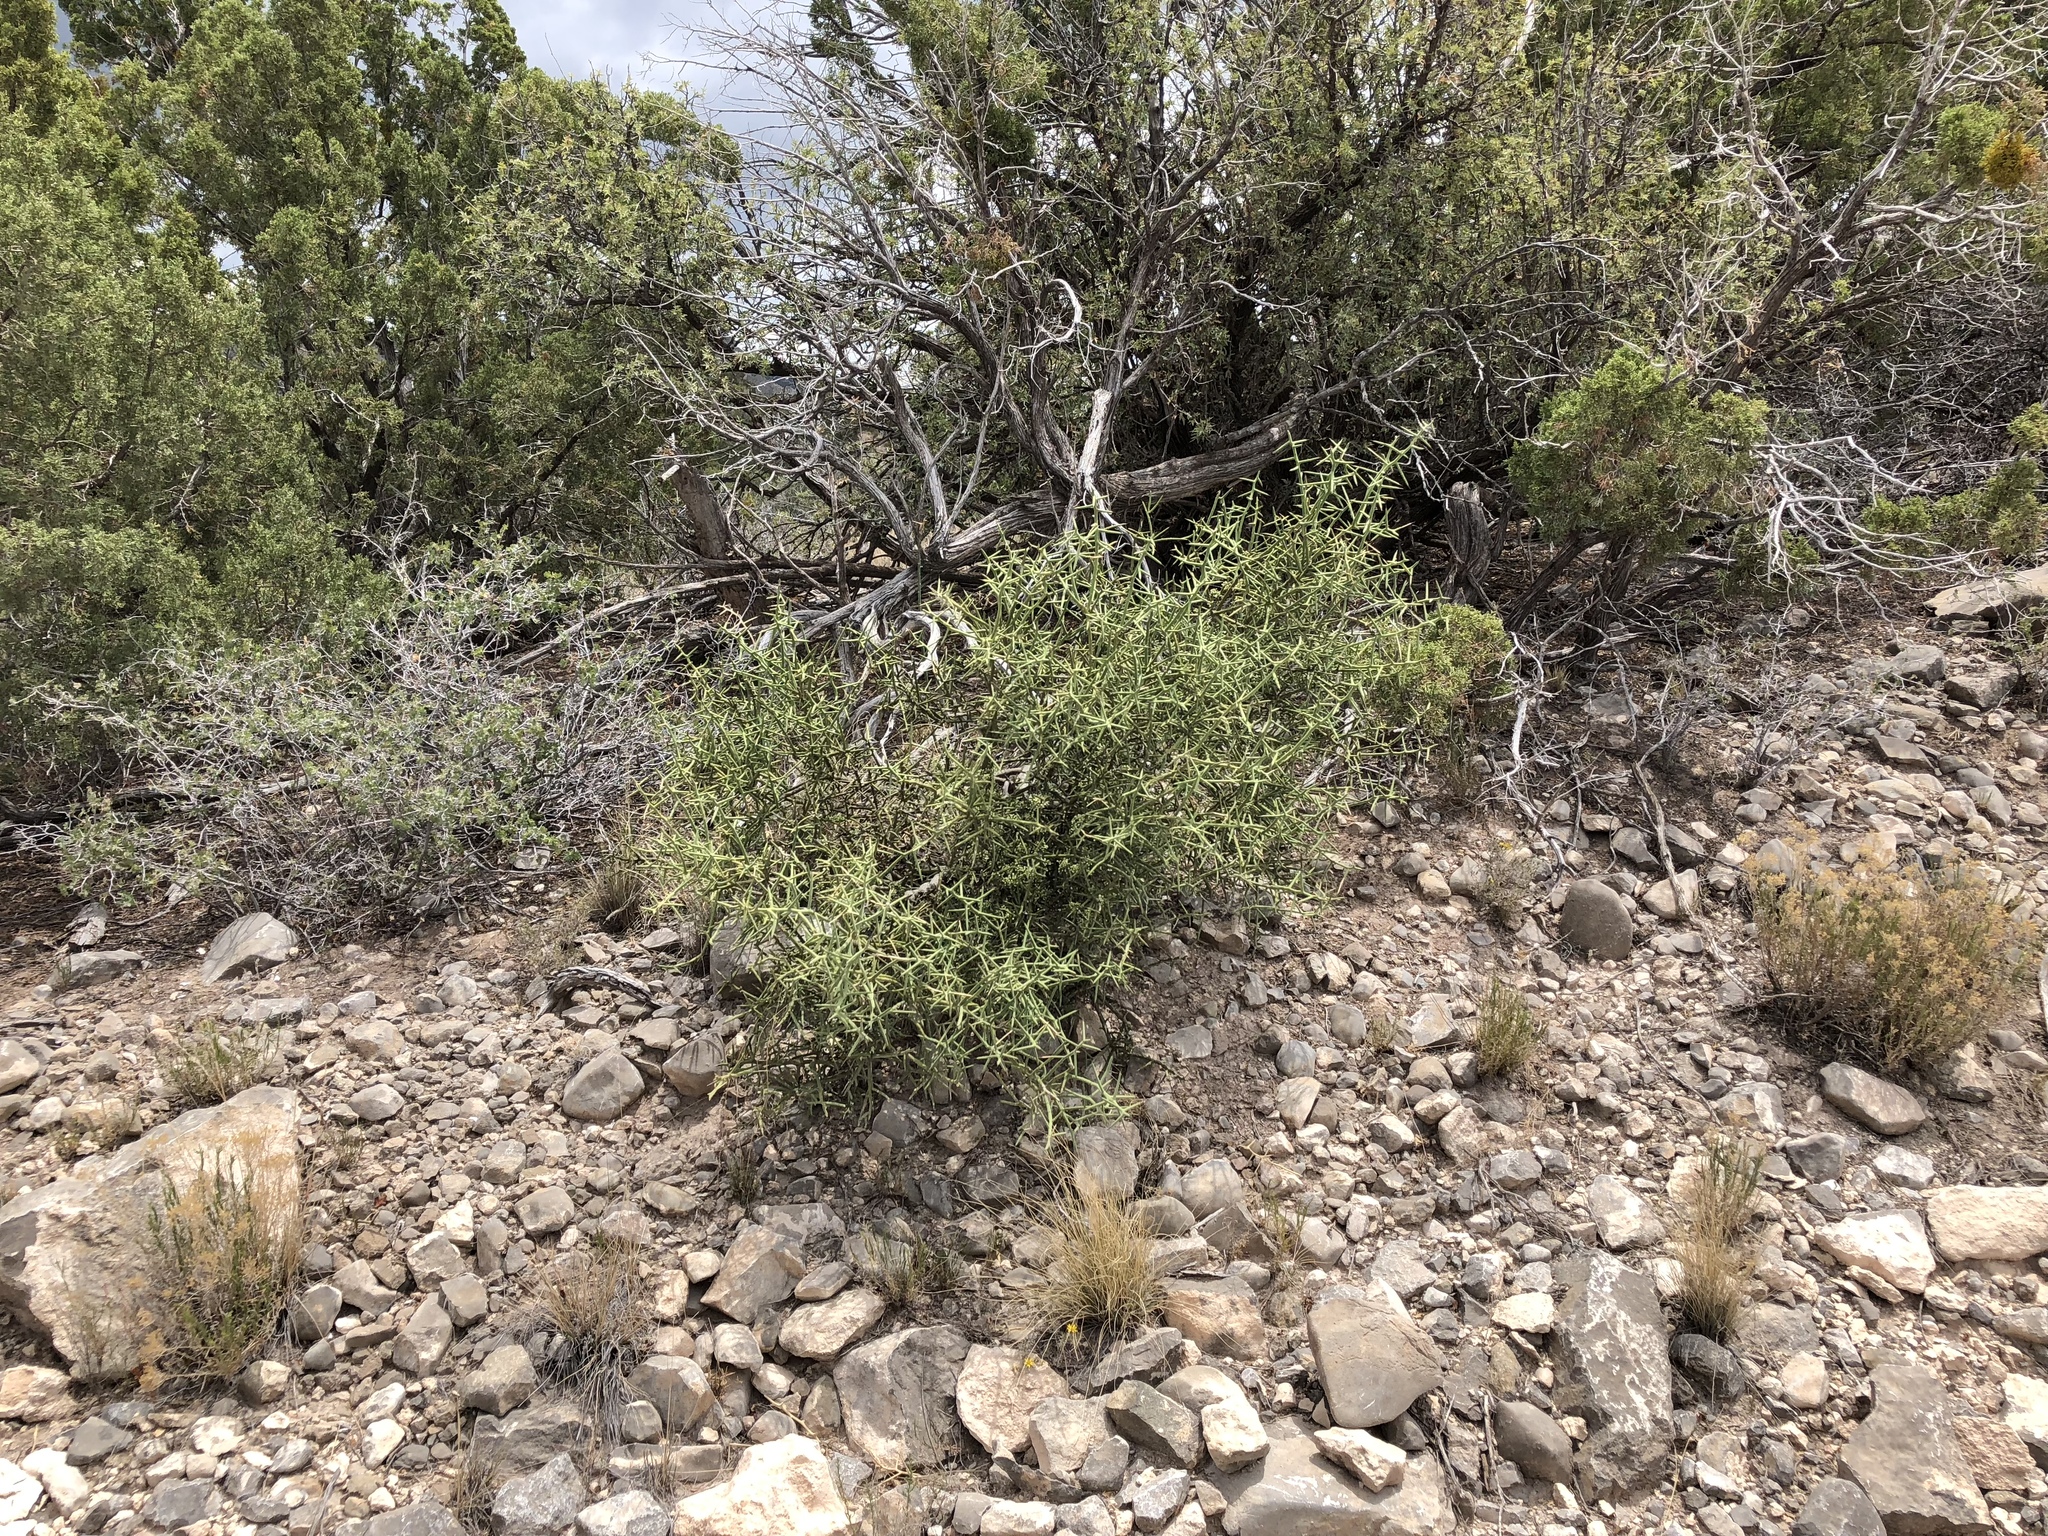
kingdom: Plantae
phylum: Tracheophyta
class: Magnoliopsida
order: Brassicales
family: Koeberliniaceae
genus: Koeberlinia
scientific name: Koeberlinia spinosa
